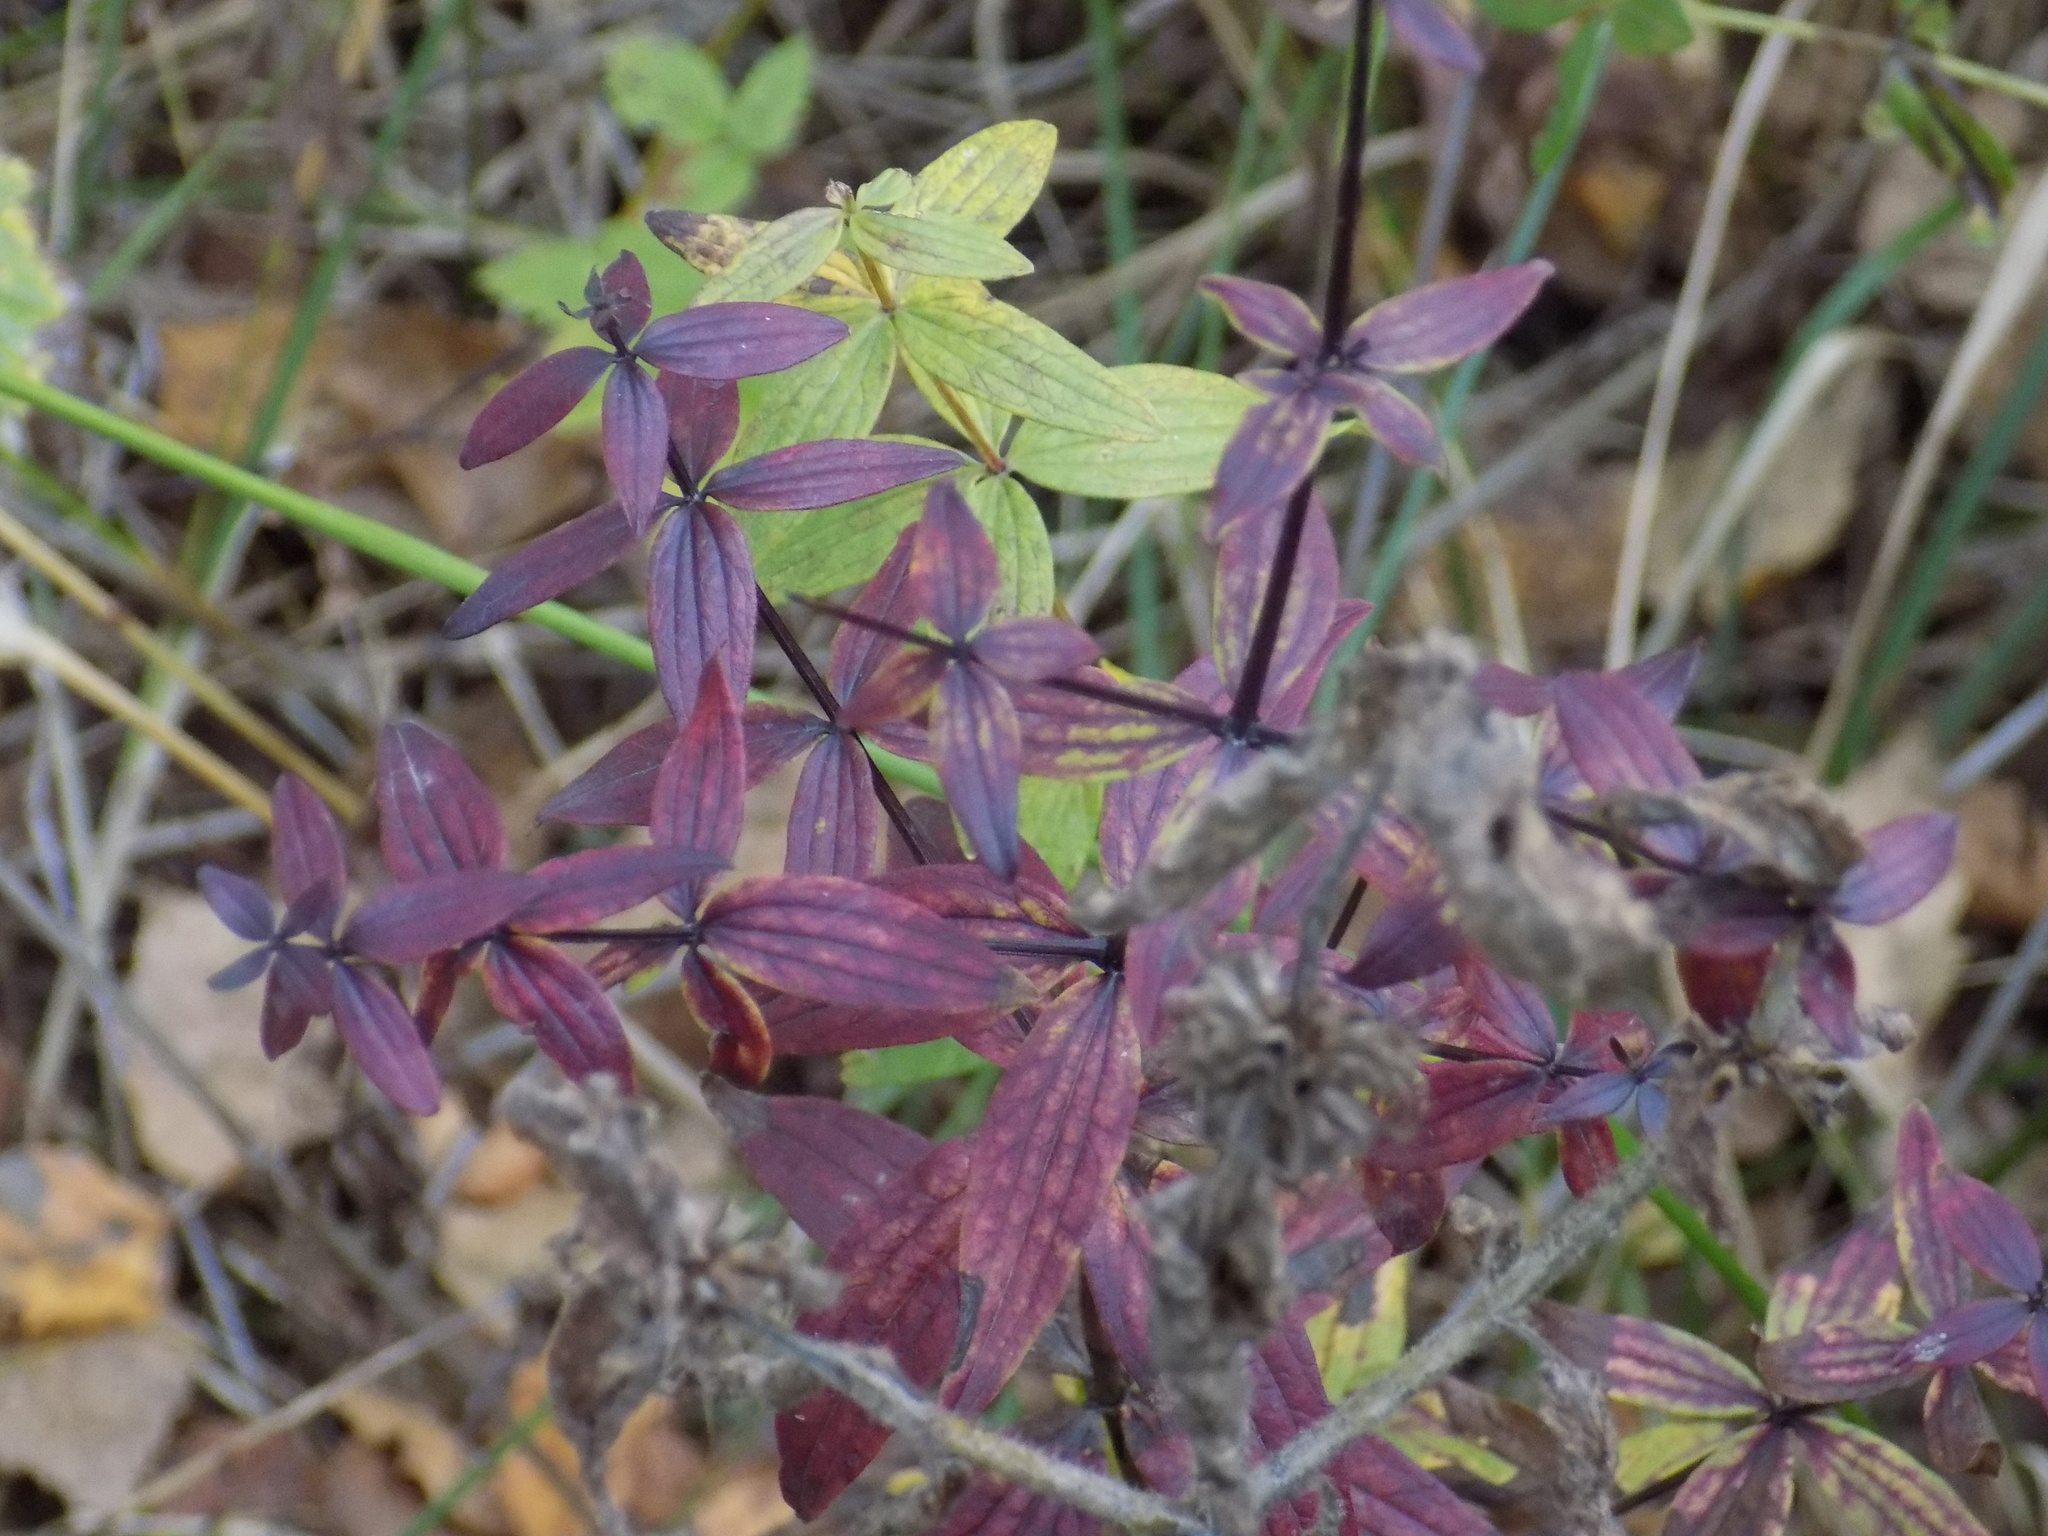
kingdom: Plantae
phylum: Tracheophyta
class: Magnoliopsida
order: Gentianales
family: Rubiaceae
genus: Galium
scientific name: Galium boreale
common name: Northern bedstraw
